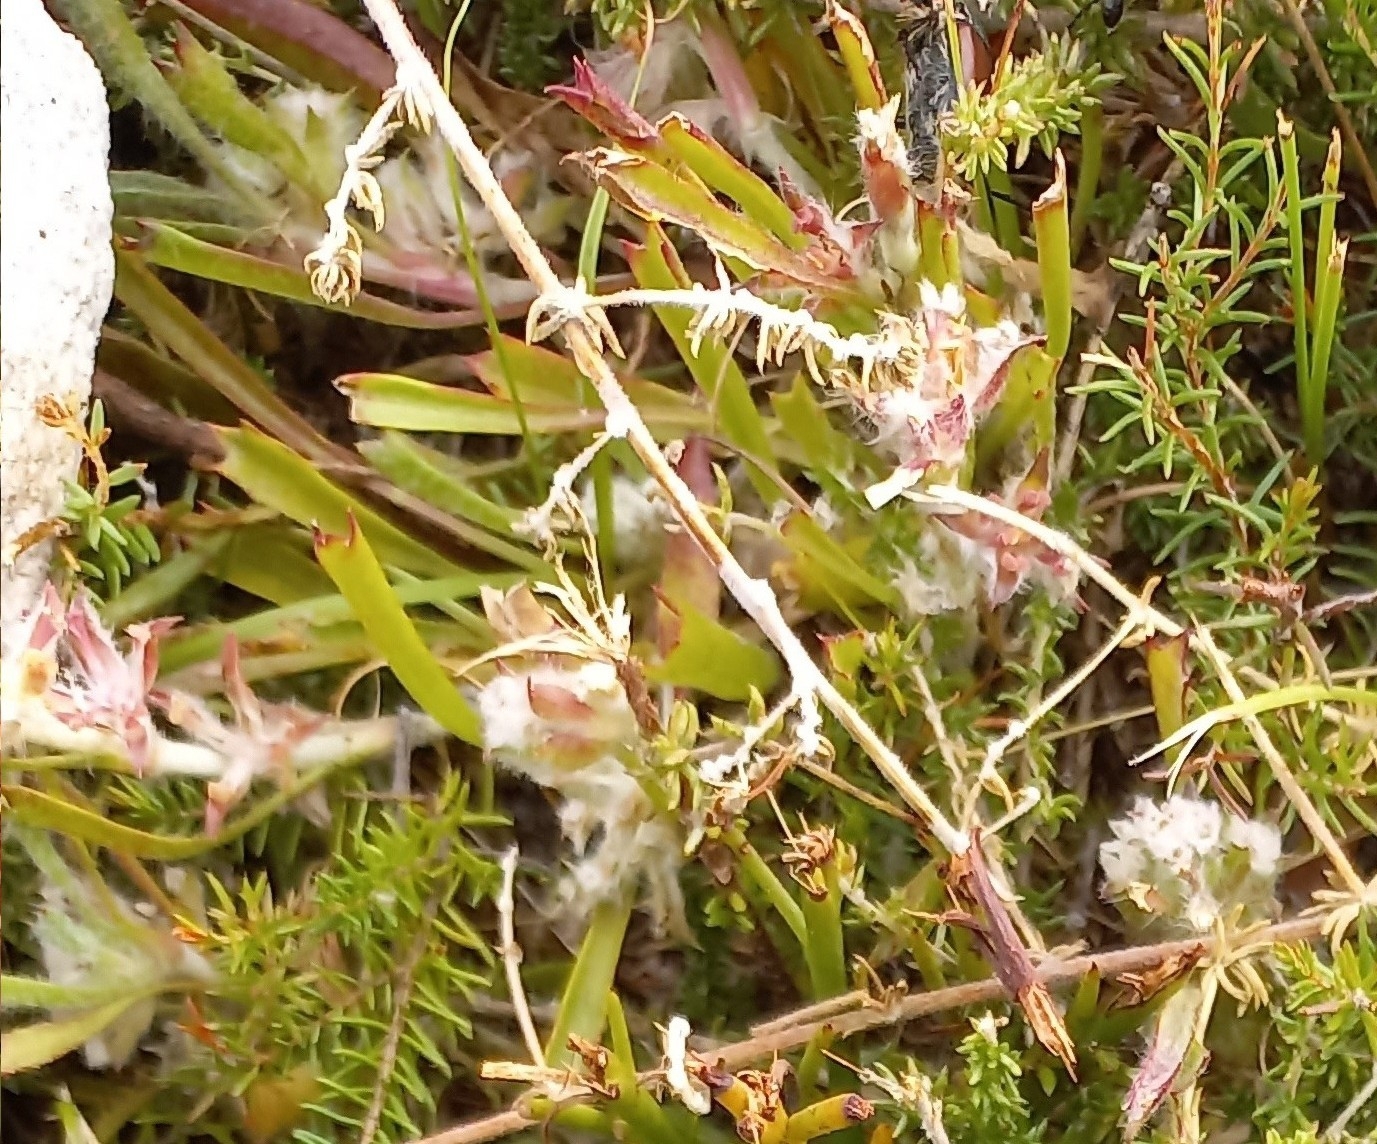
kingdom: Plantae
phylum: Tracheophyta
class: Magnoliopsida
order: Apiales
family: Apiaceae
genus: Centella
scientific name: Centella tridentata
